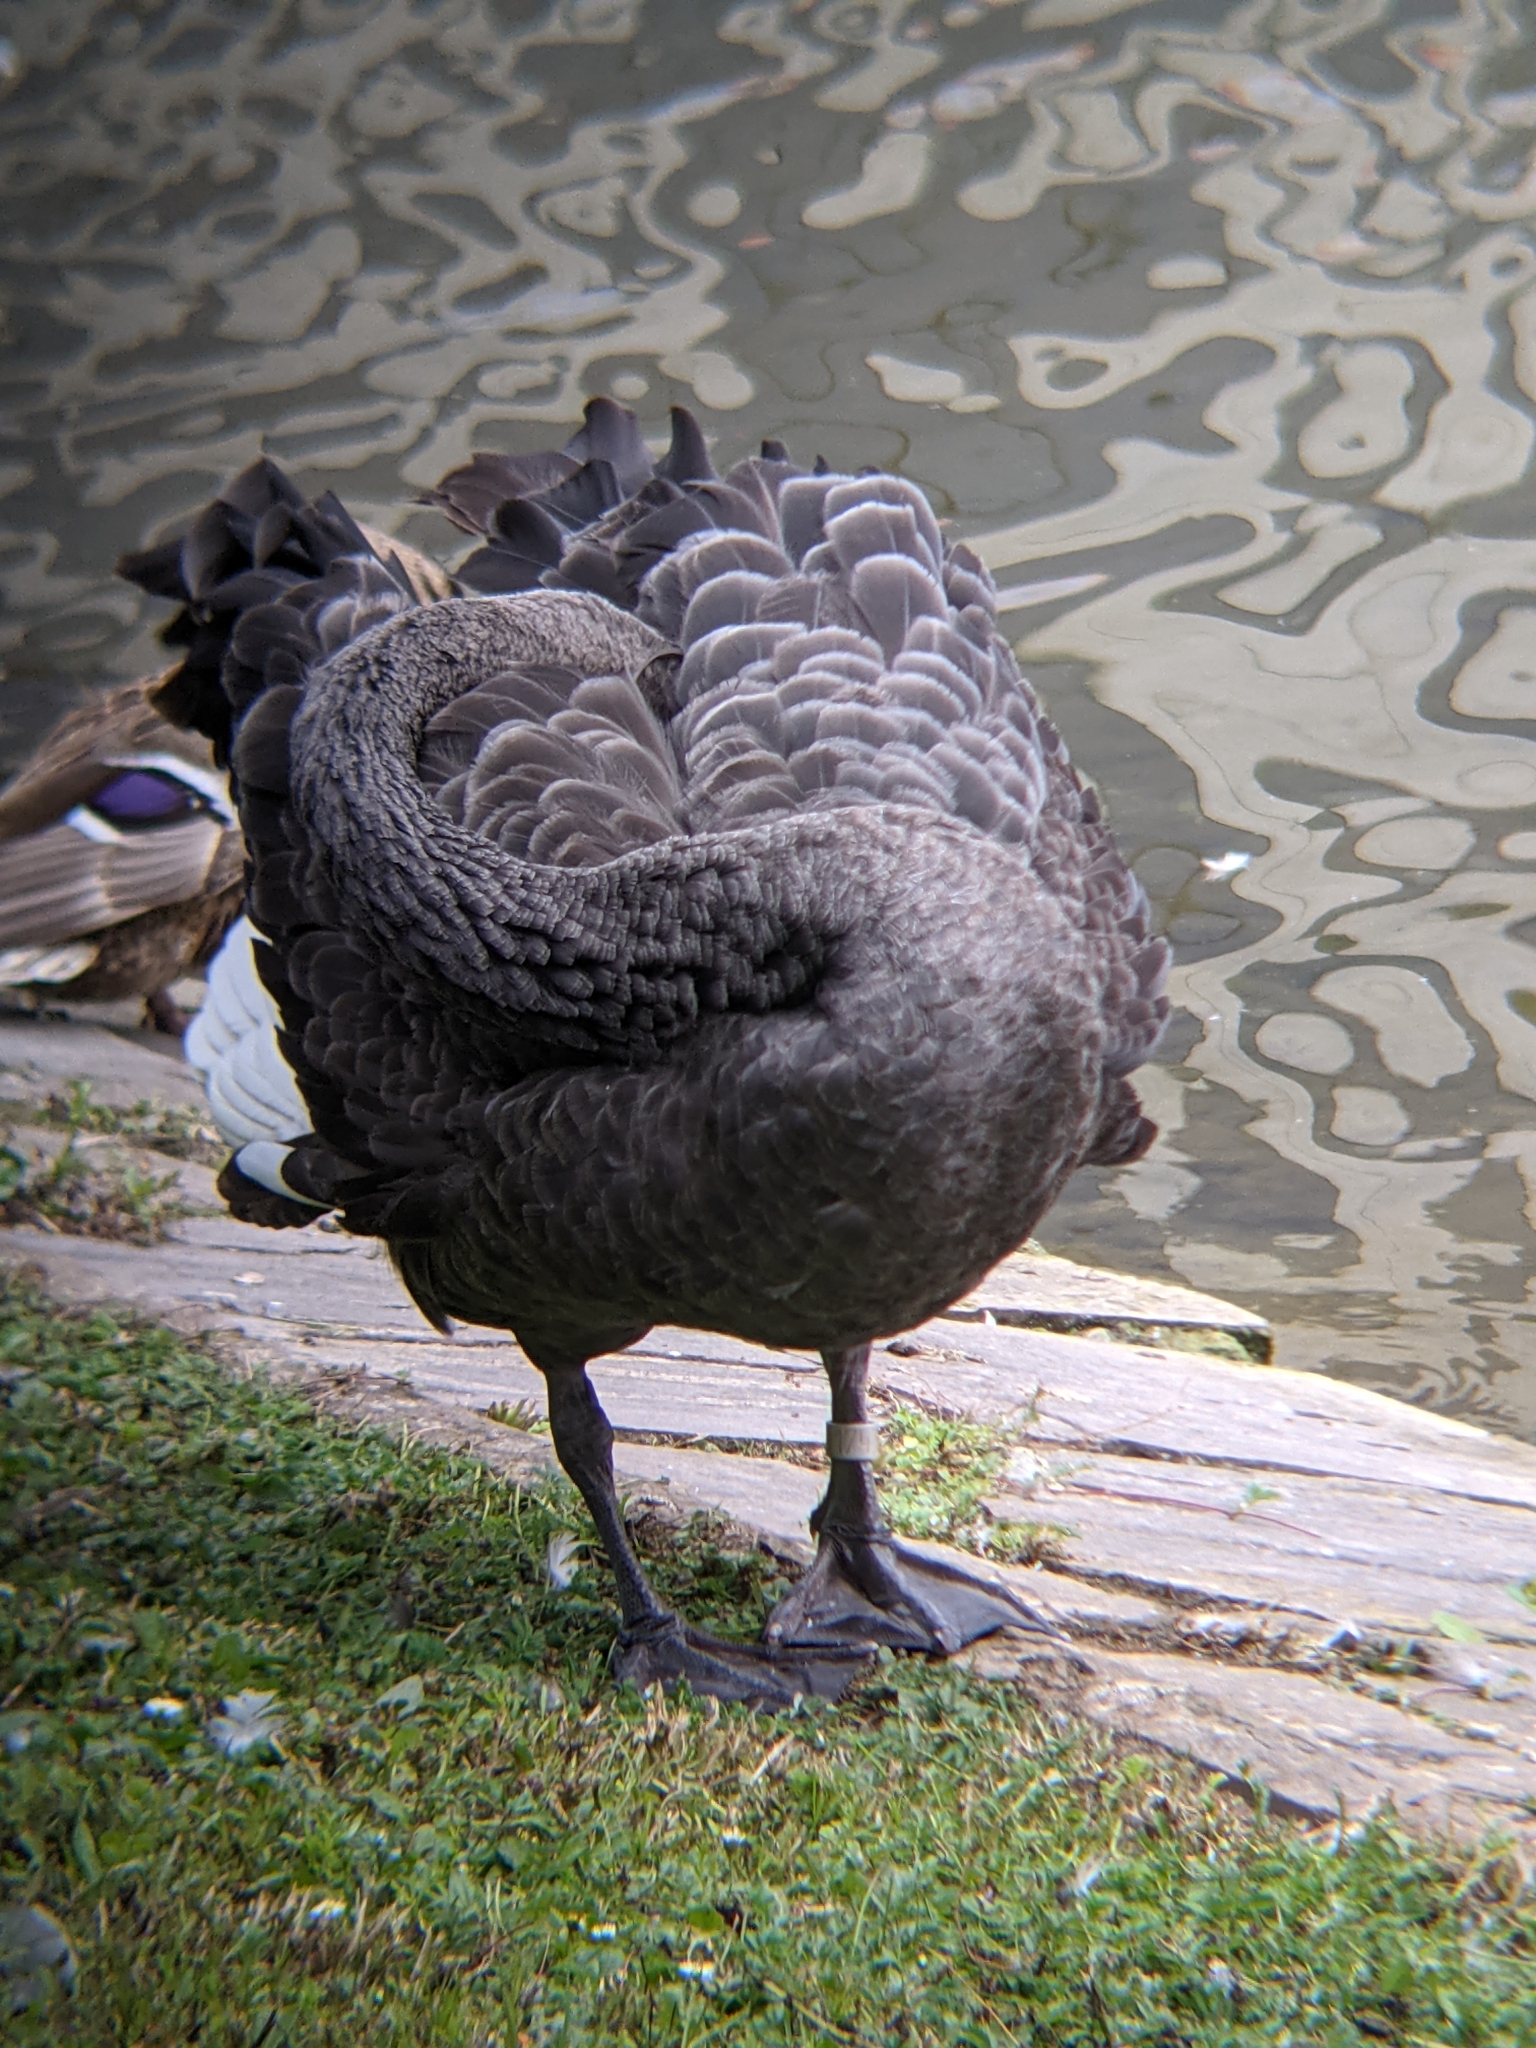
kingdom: Animalia
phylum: Chordata
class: Aves
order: Anseriformes
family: Anatidae
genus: Cygnus
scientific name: Cygnus atratus
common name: Black swan
